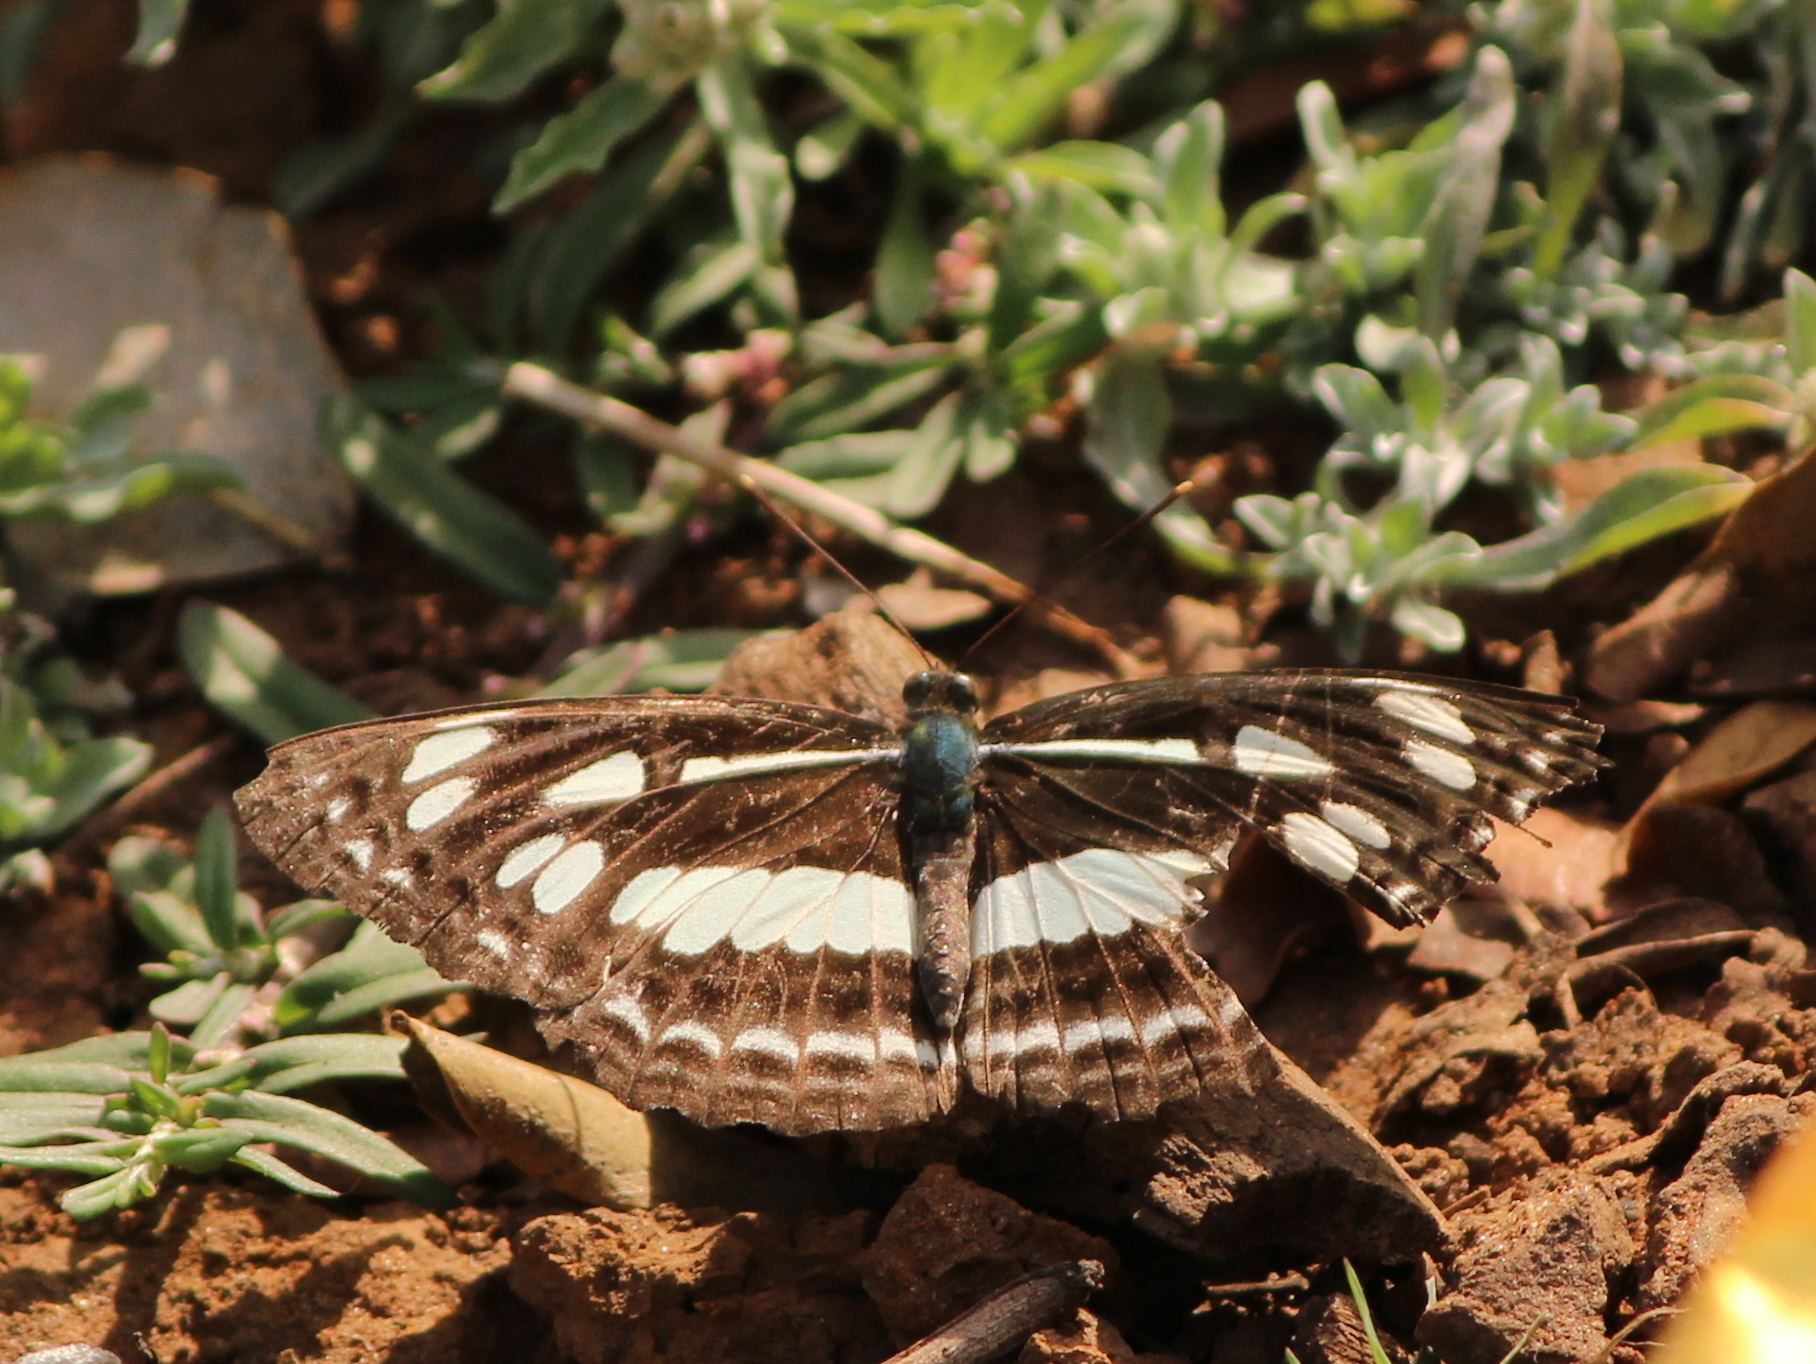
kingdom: Animalia
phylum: Arthropoda
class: Insecta
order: Lepidoptera
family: Nymphalidae
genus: Neptis
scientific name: Neptis jumbah
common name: Chestnut-streaked sailer
